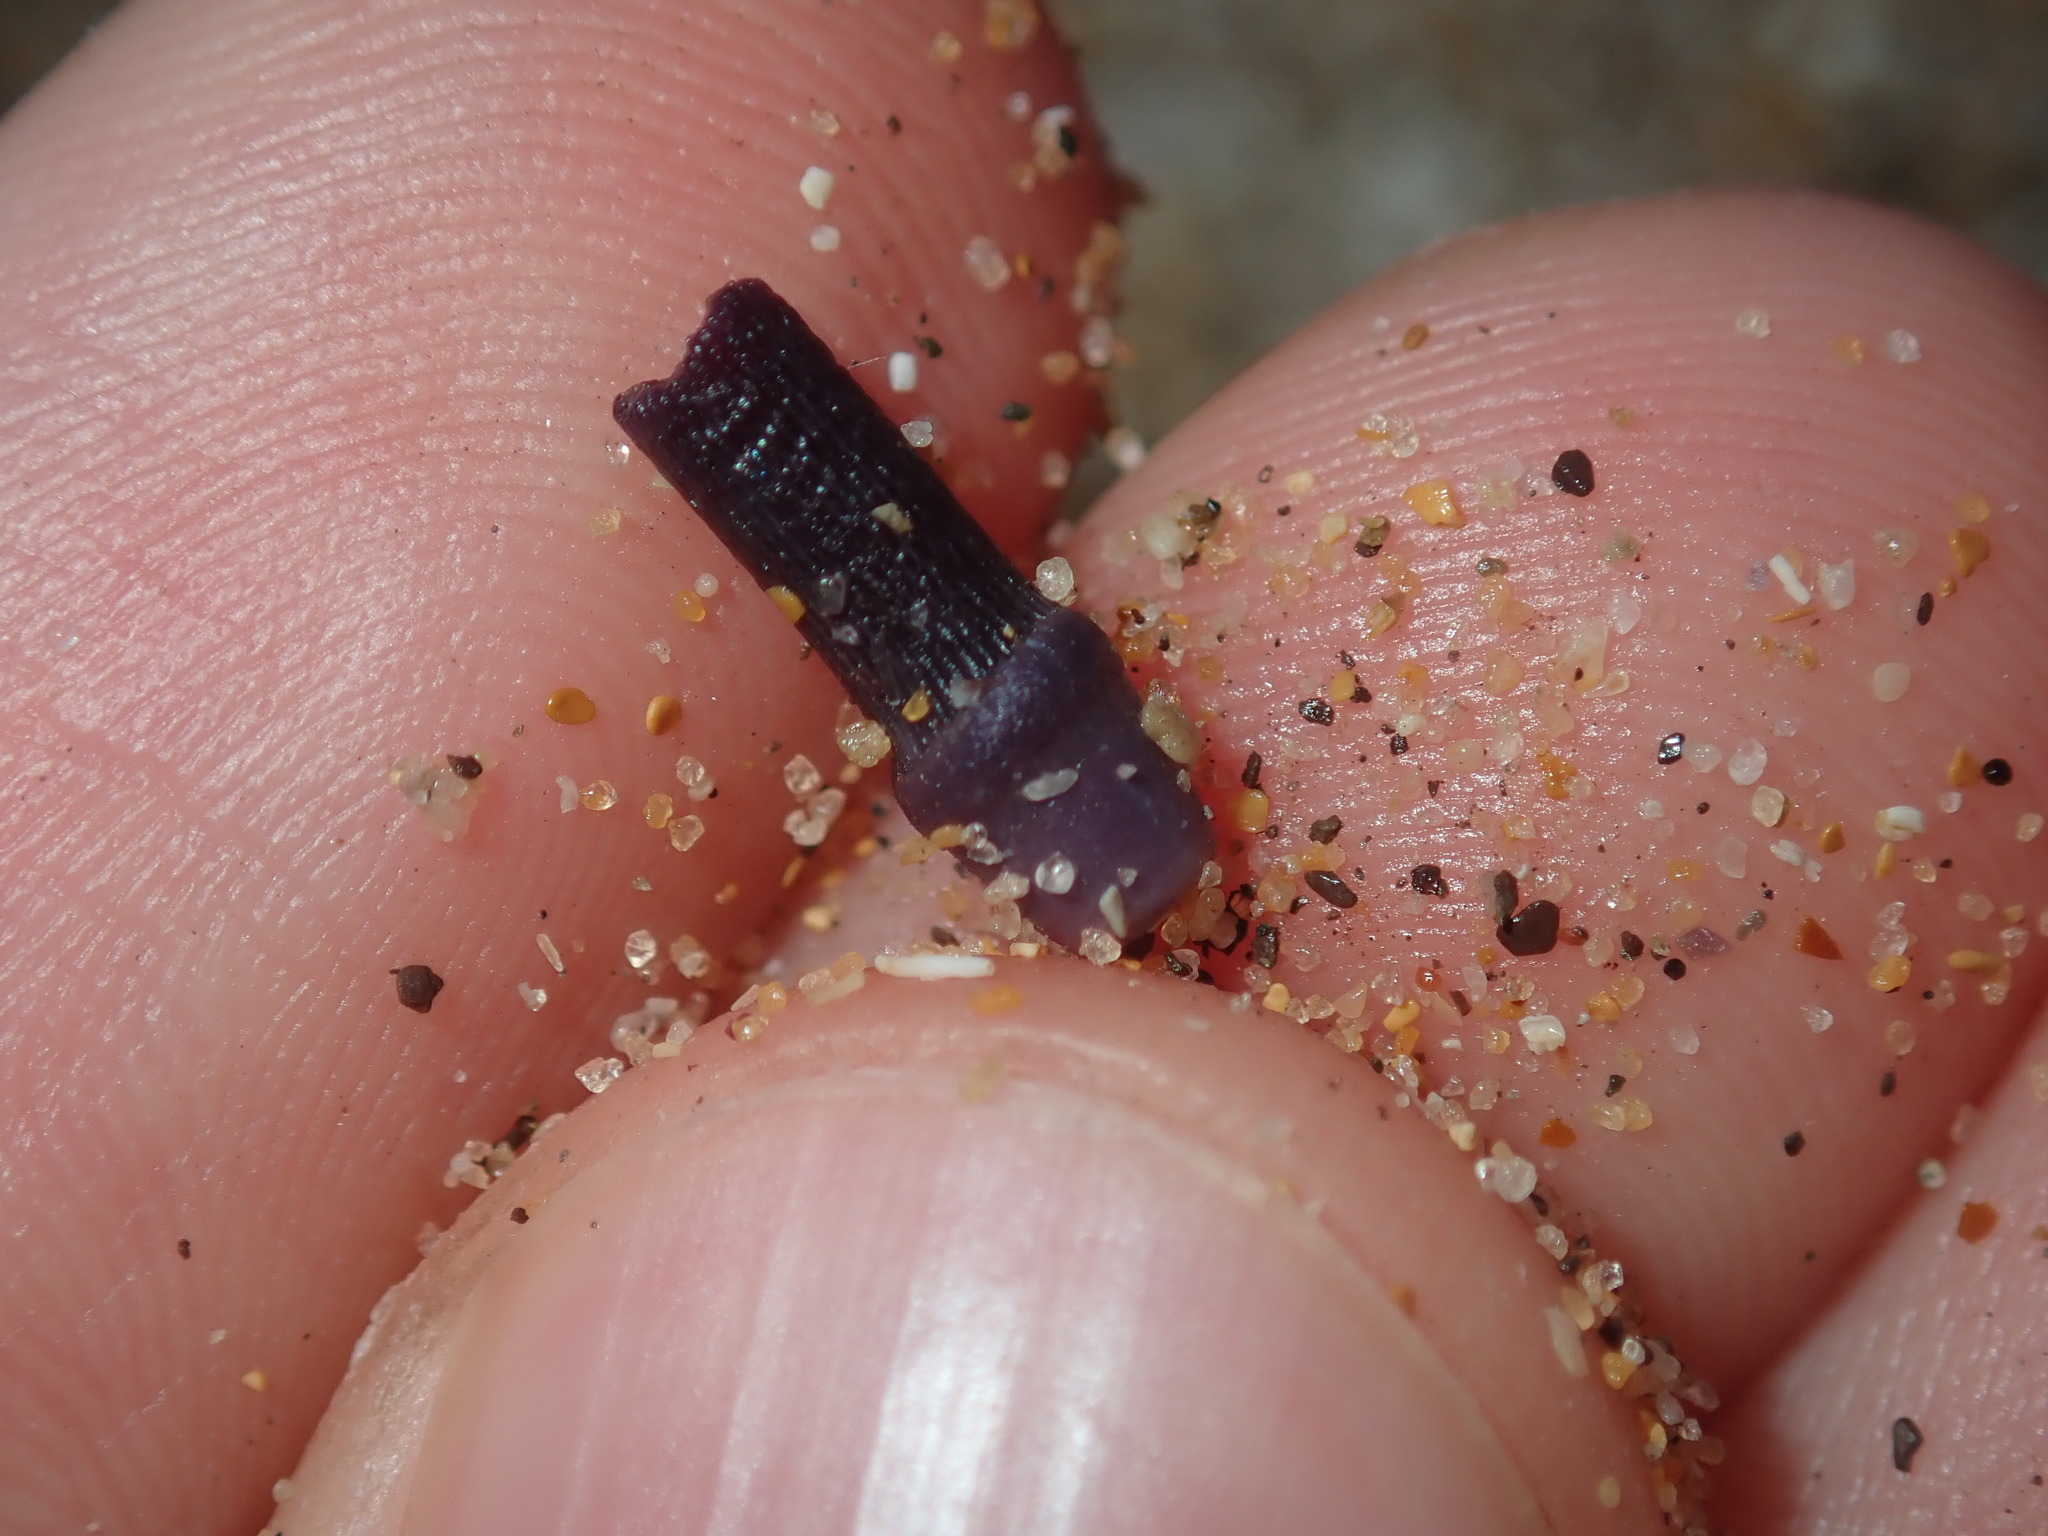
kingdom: Animalia
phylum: Echinodermata
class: Echinoidea
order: Diadematoida
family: Diadematidae
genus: Centrostephanus
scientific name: Centrostephanus rodgersii
